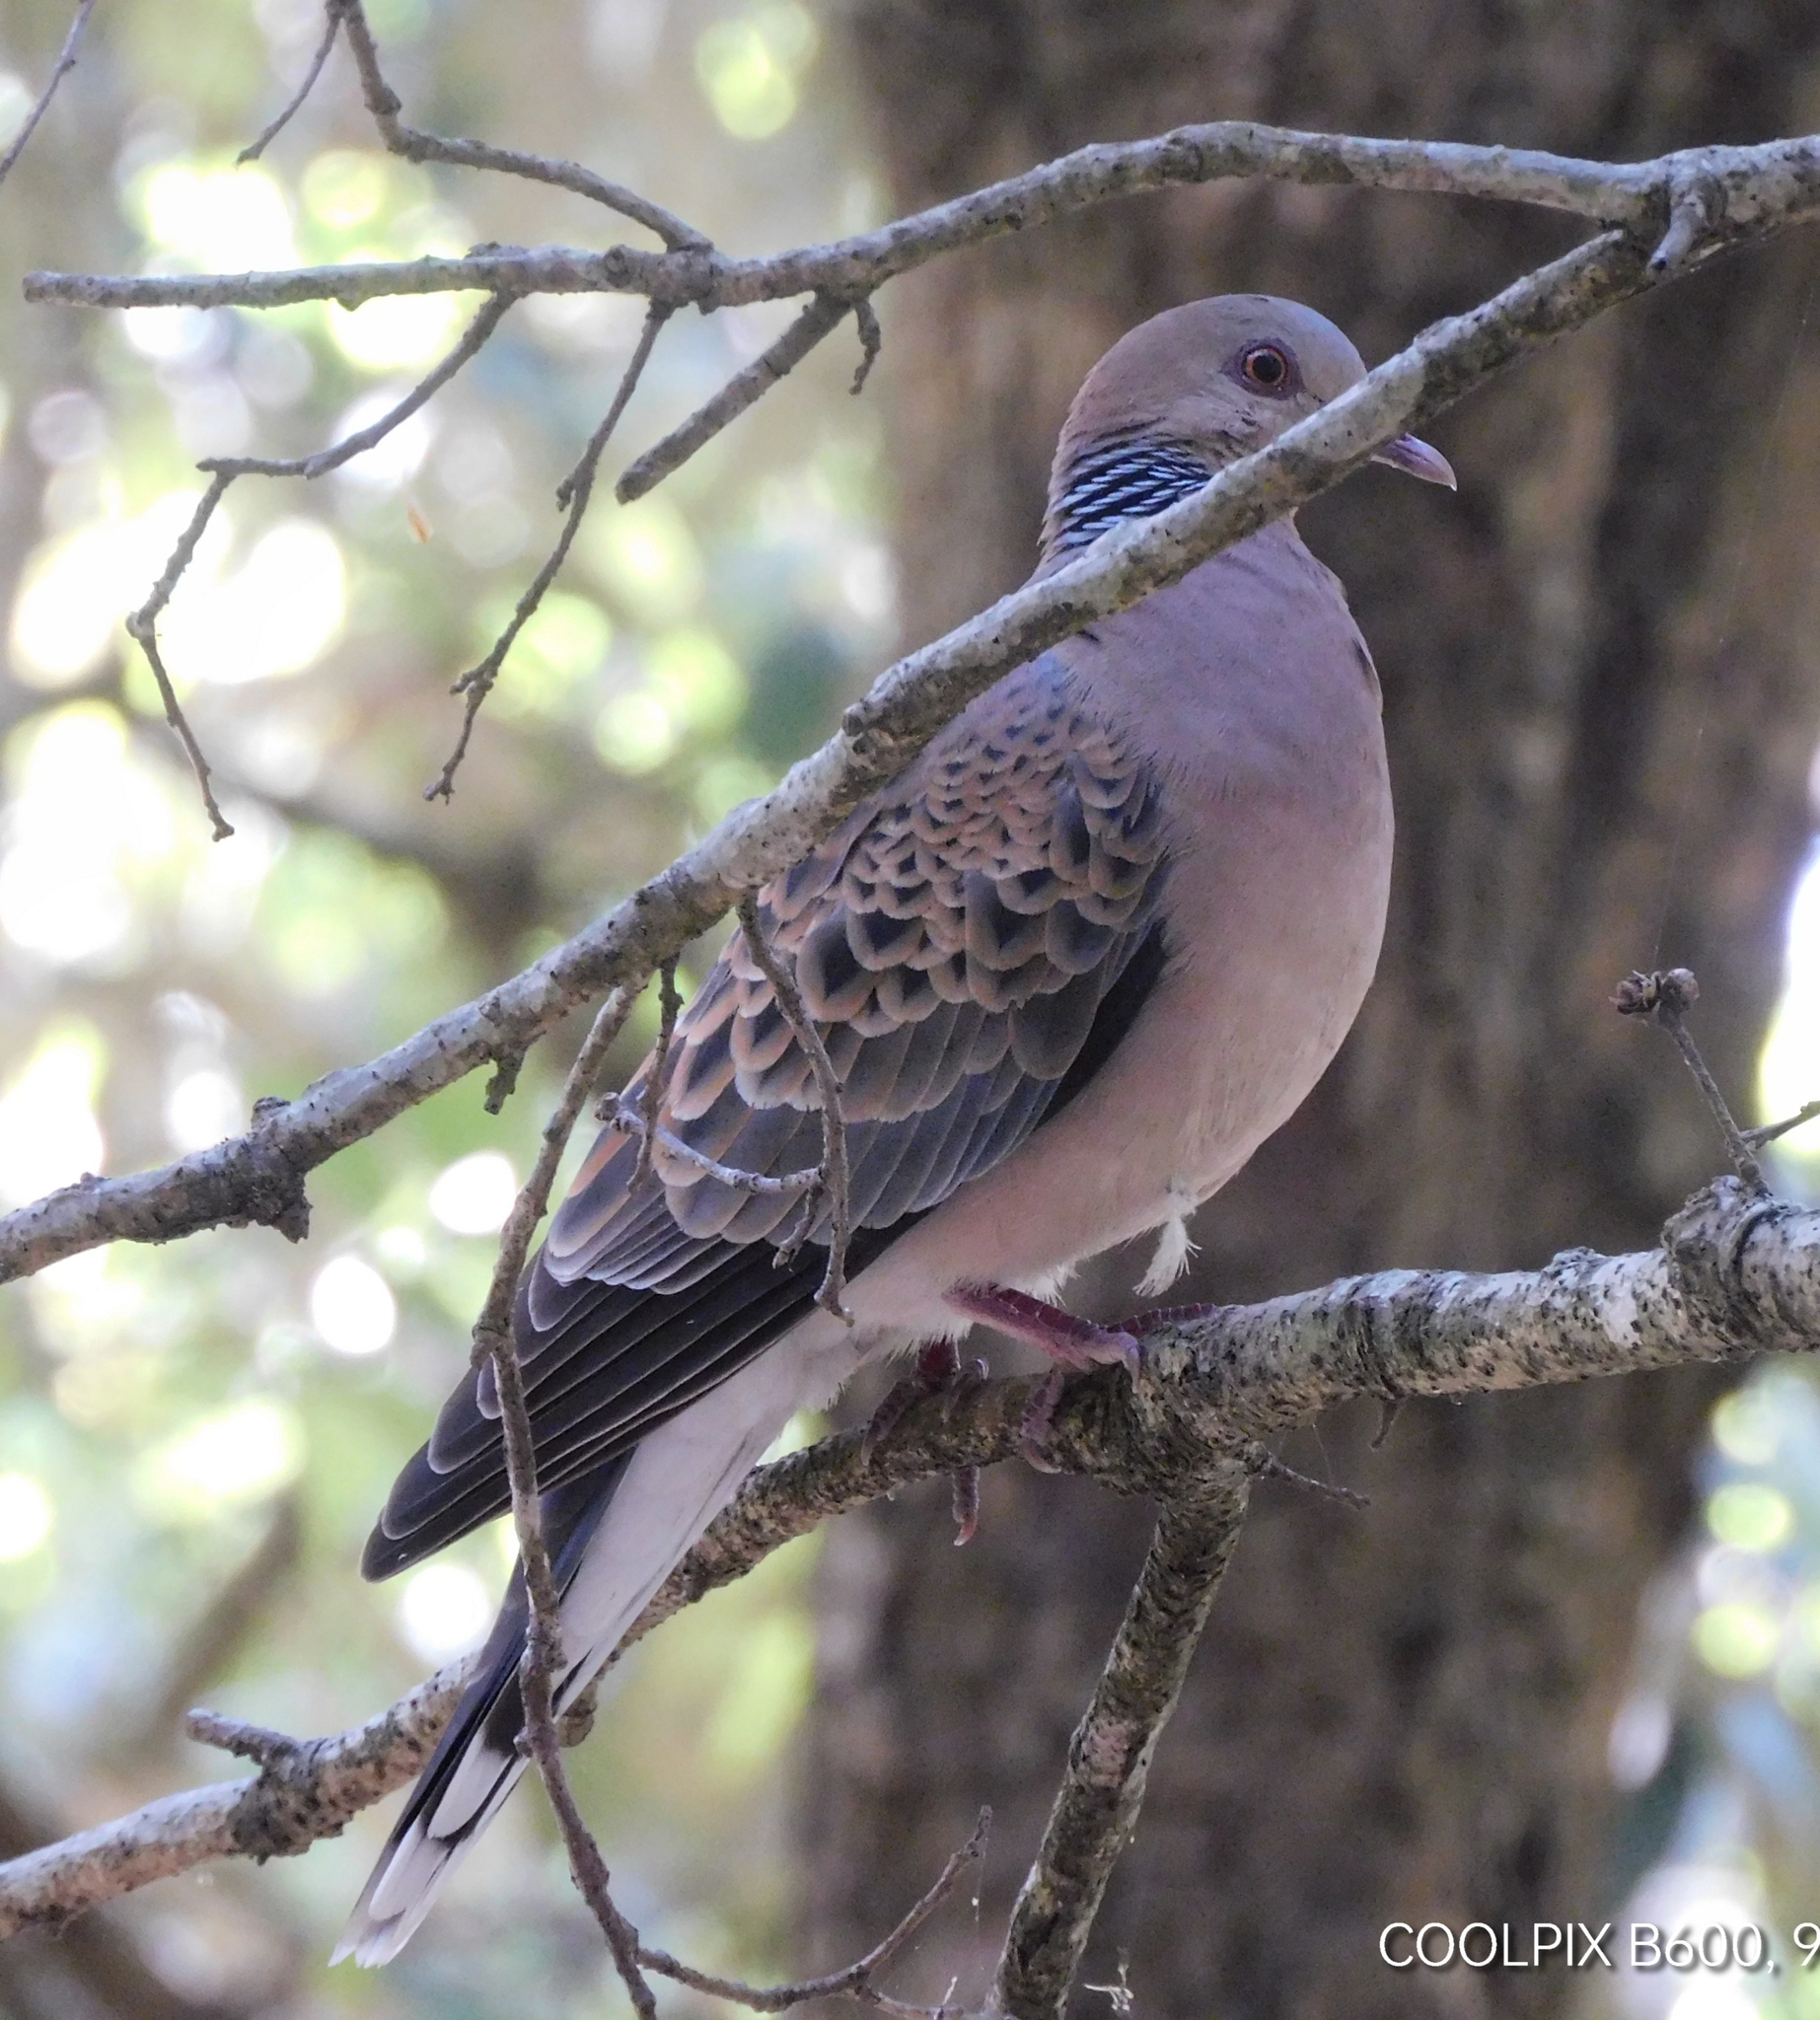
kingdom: Animalia
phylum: Chordata
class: Aves
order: Columbiformes
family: Columbidae
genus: Streptopelia
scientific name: Streptopelia orientalis
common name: Oriental turtle dove
